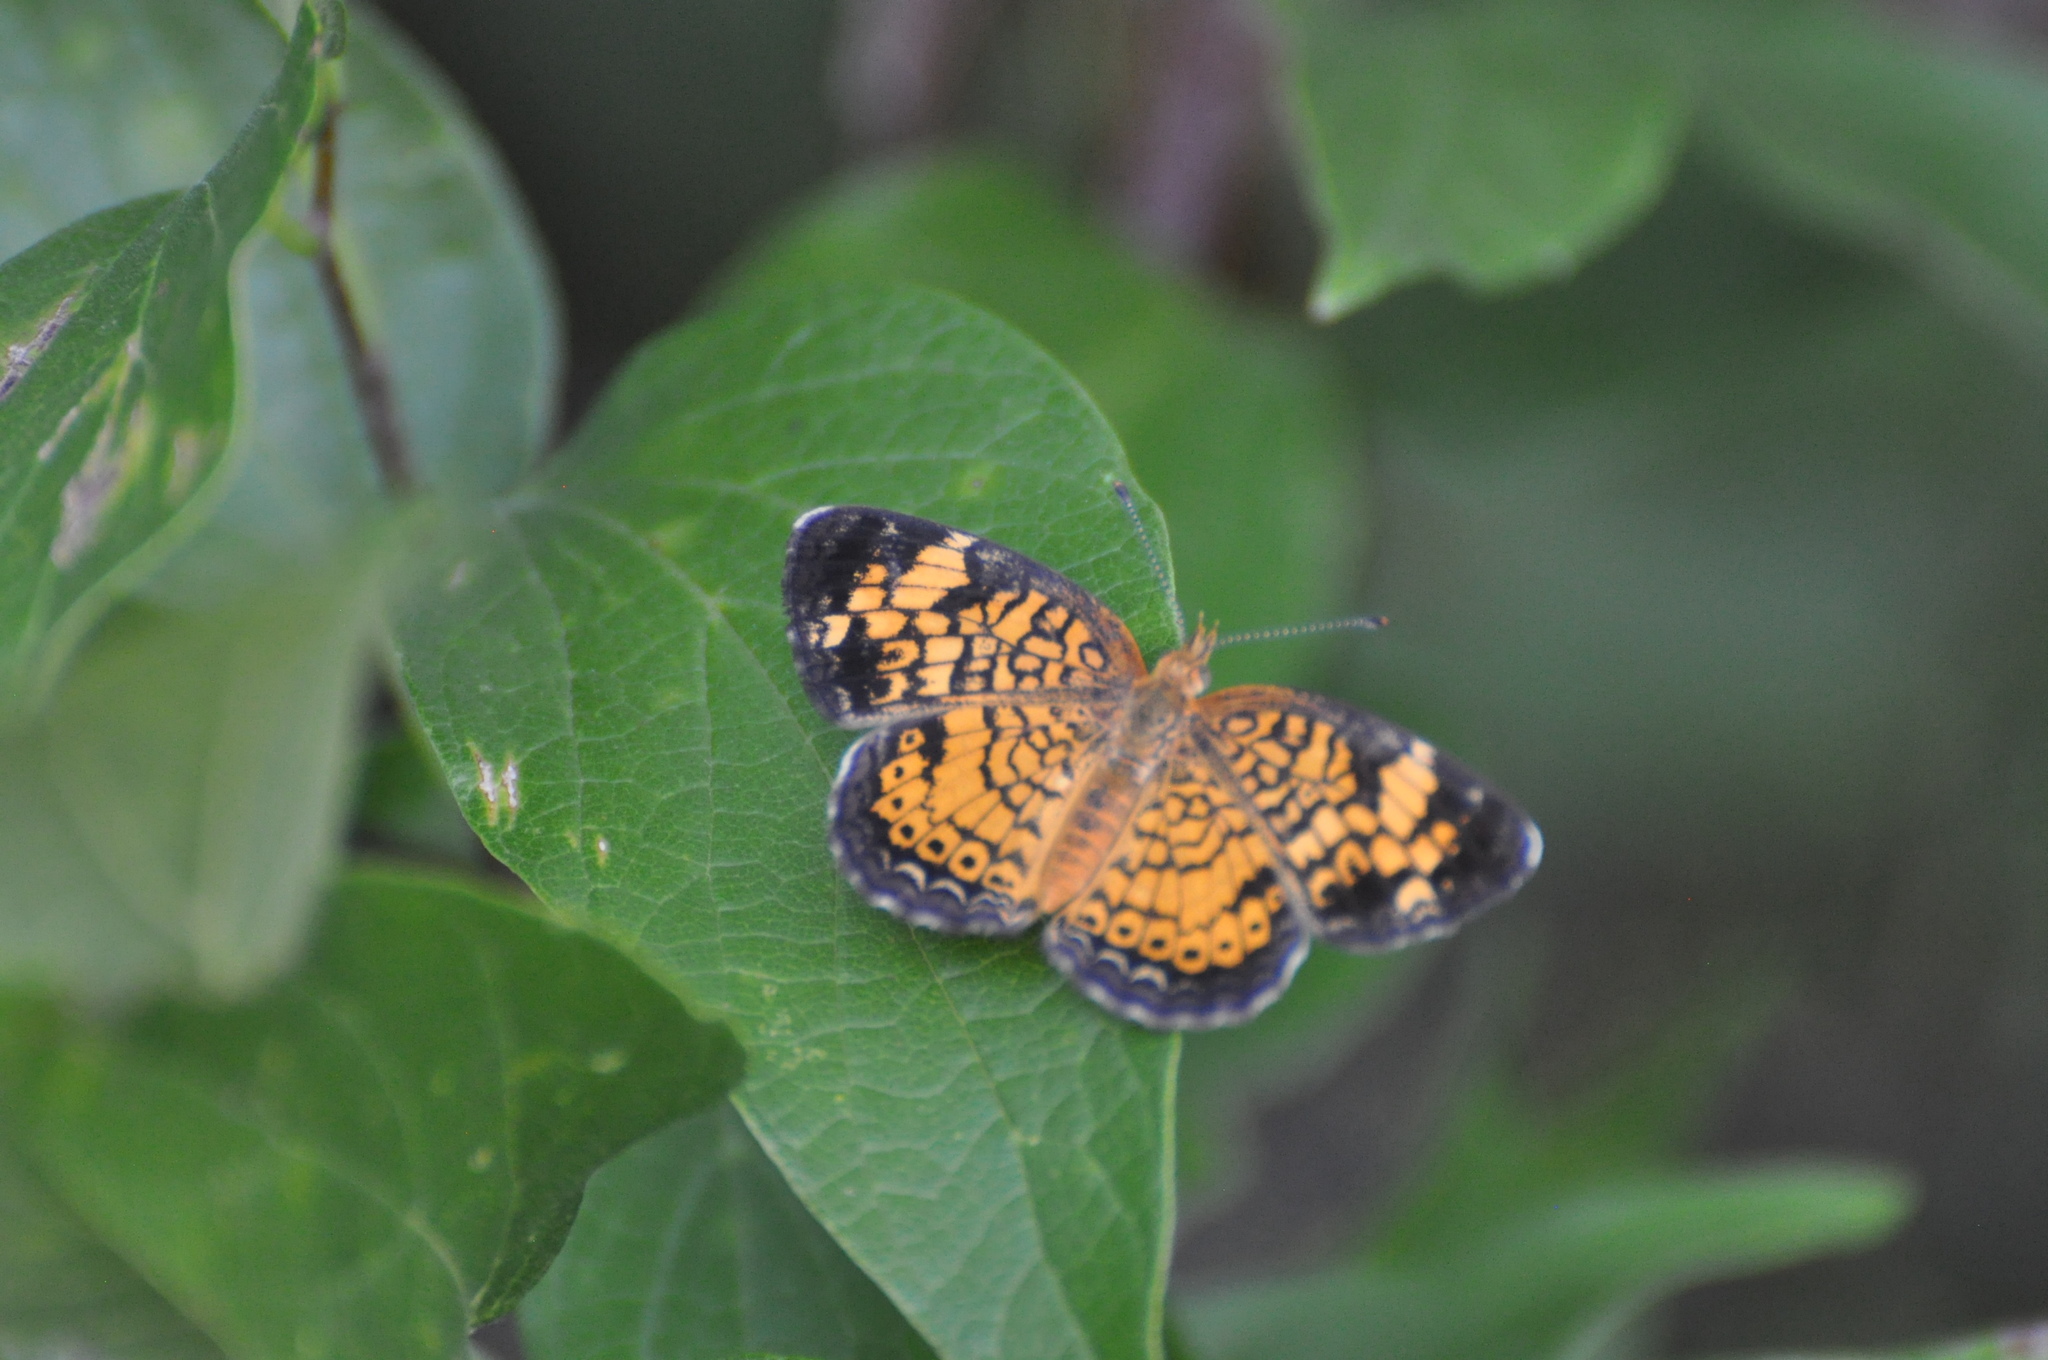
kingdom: Animalia
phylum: Arthropoda
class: Insecta
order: Lepidoptera
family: Nymphalidae
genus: Phyciodes
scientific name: Phyciodes tharos
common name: Pearl crescent
